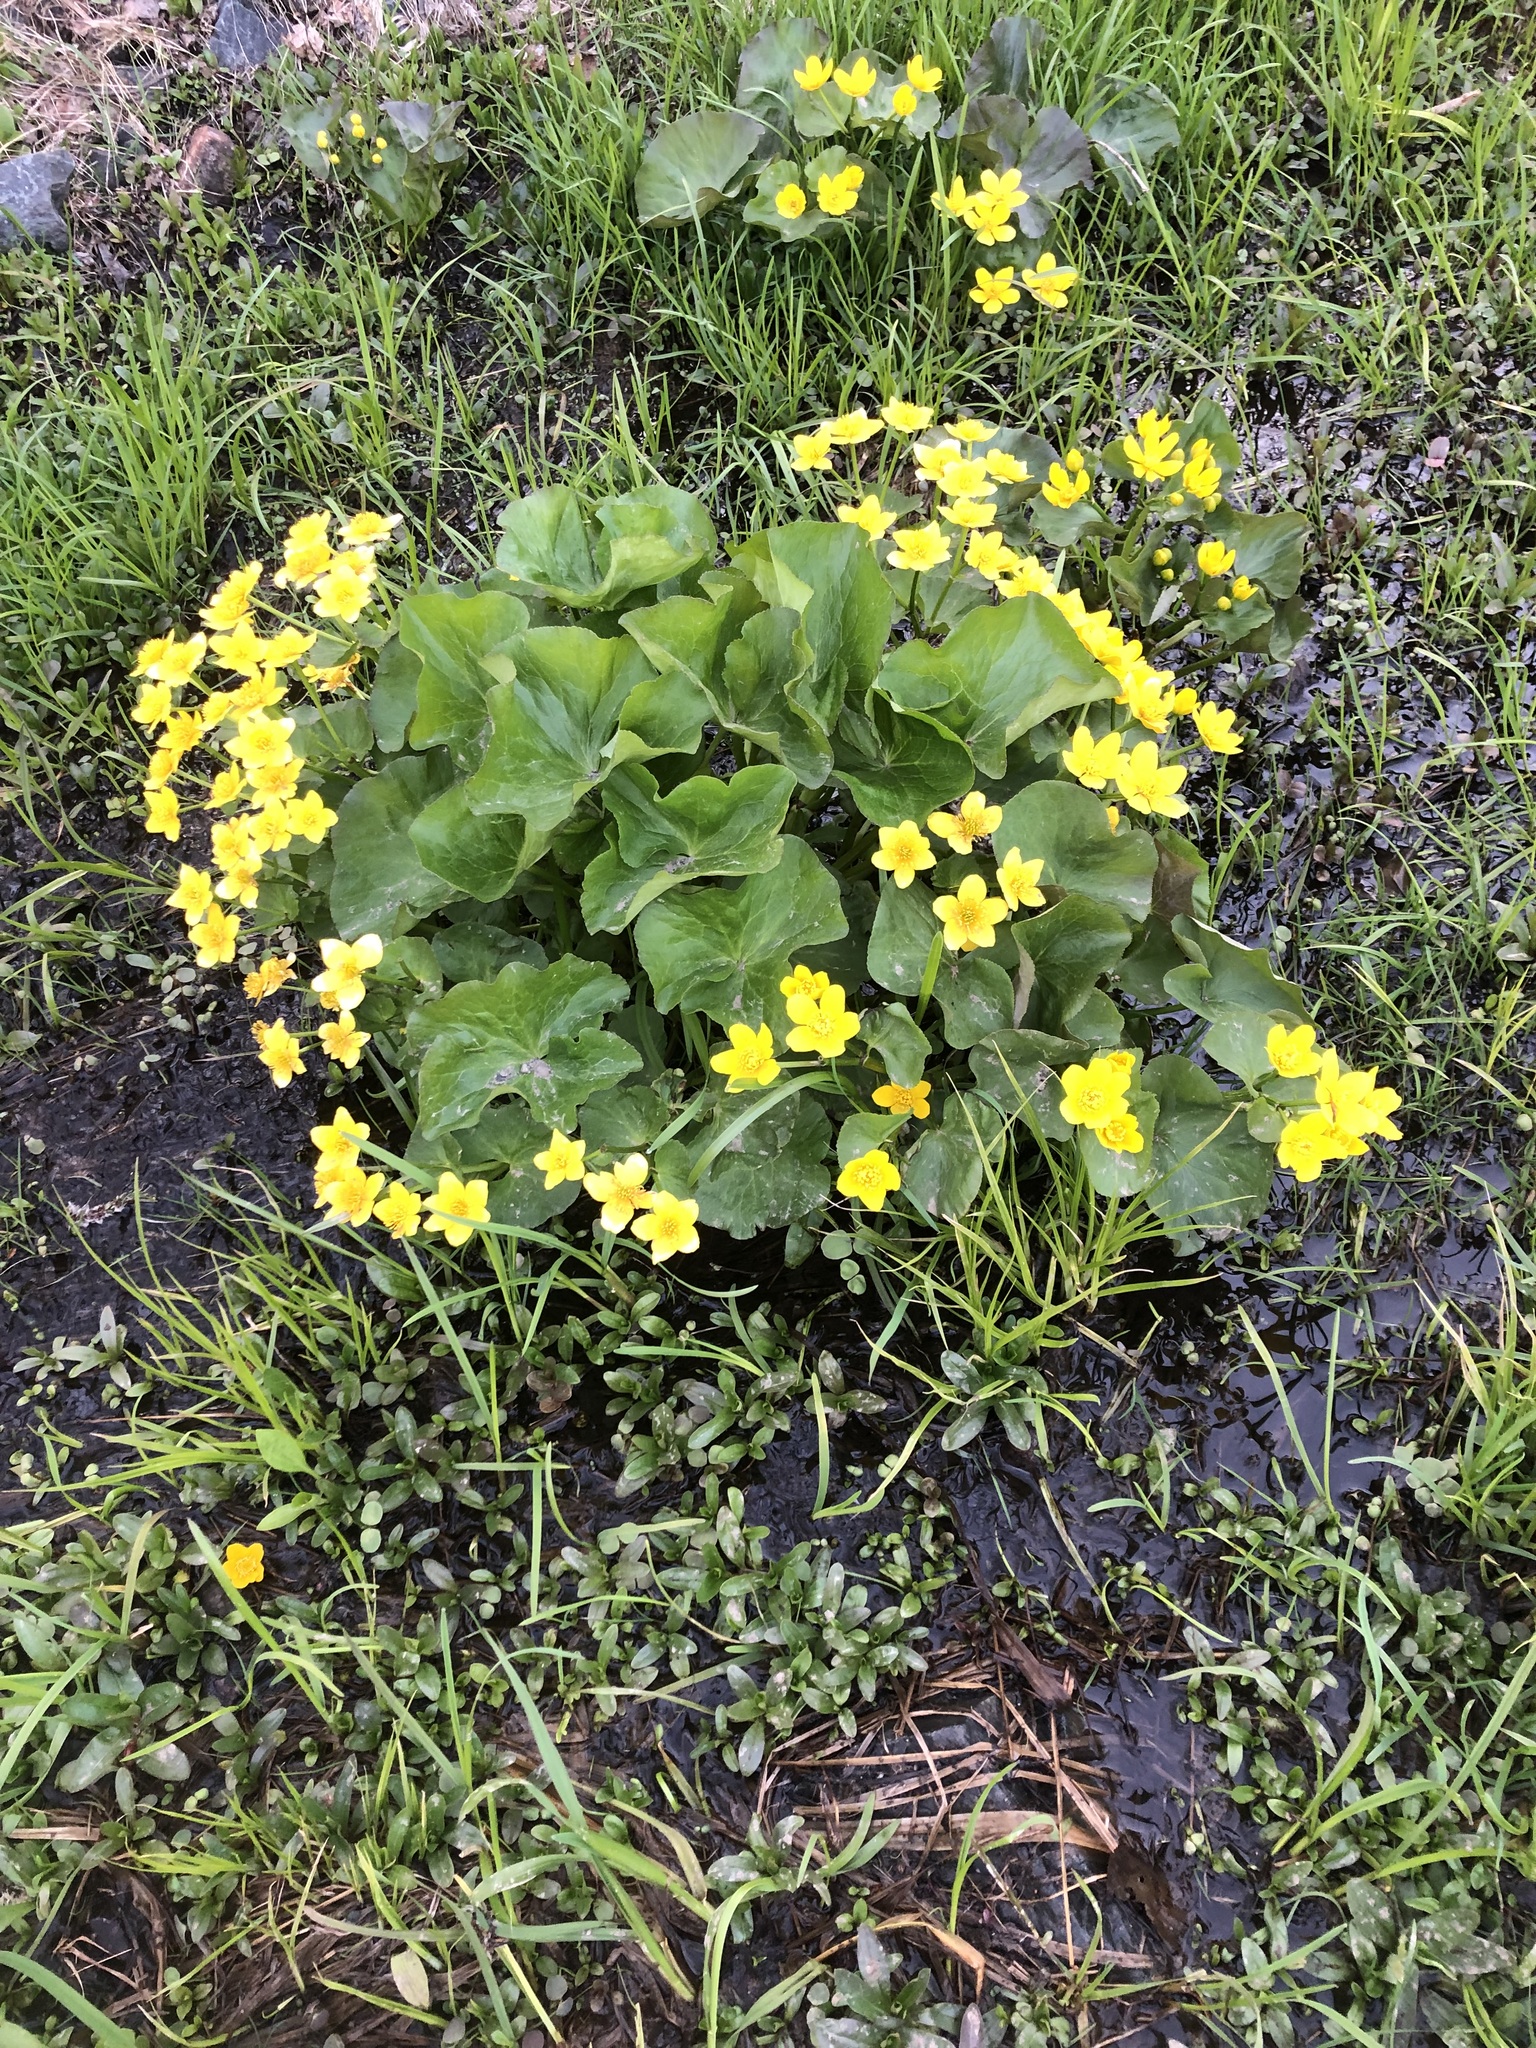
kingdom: Plantae
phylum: Tracheophyta
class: Magnoliopsida
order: Ranunculales
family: Ranunculaceae
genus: Caltha
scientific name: Caltha palustris
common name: Marsh marigold
